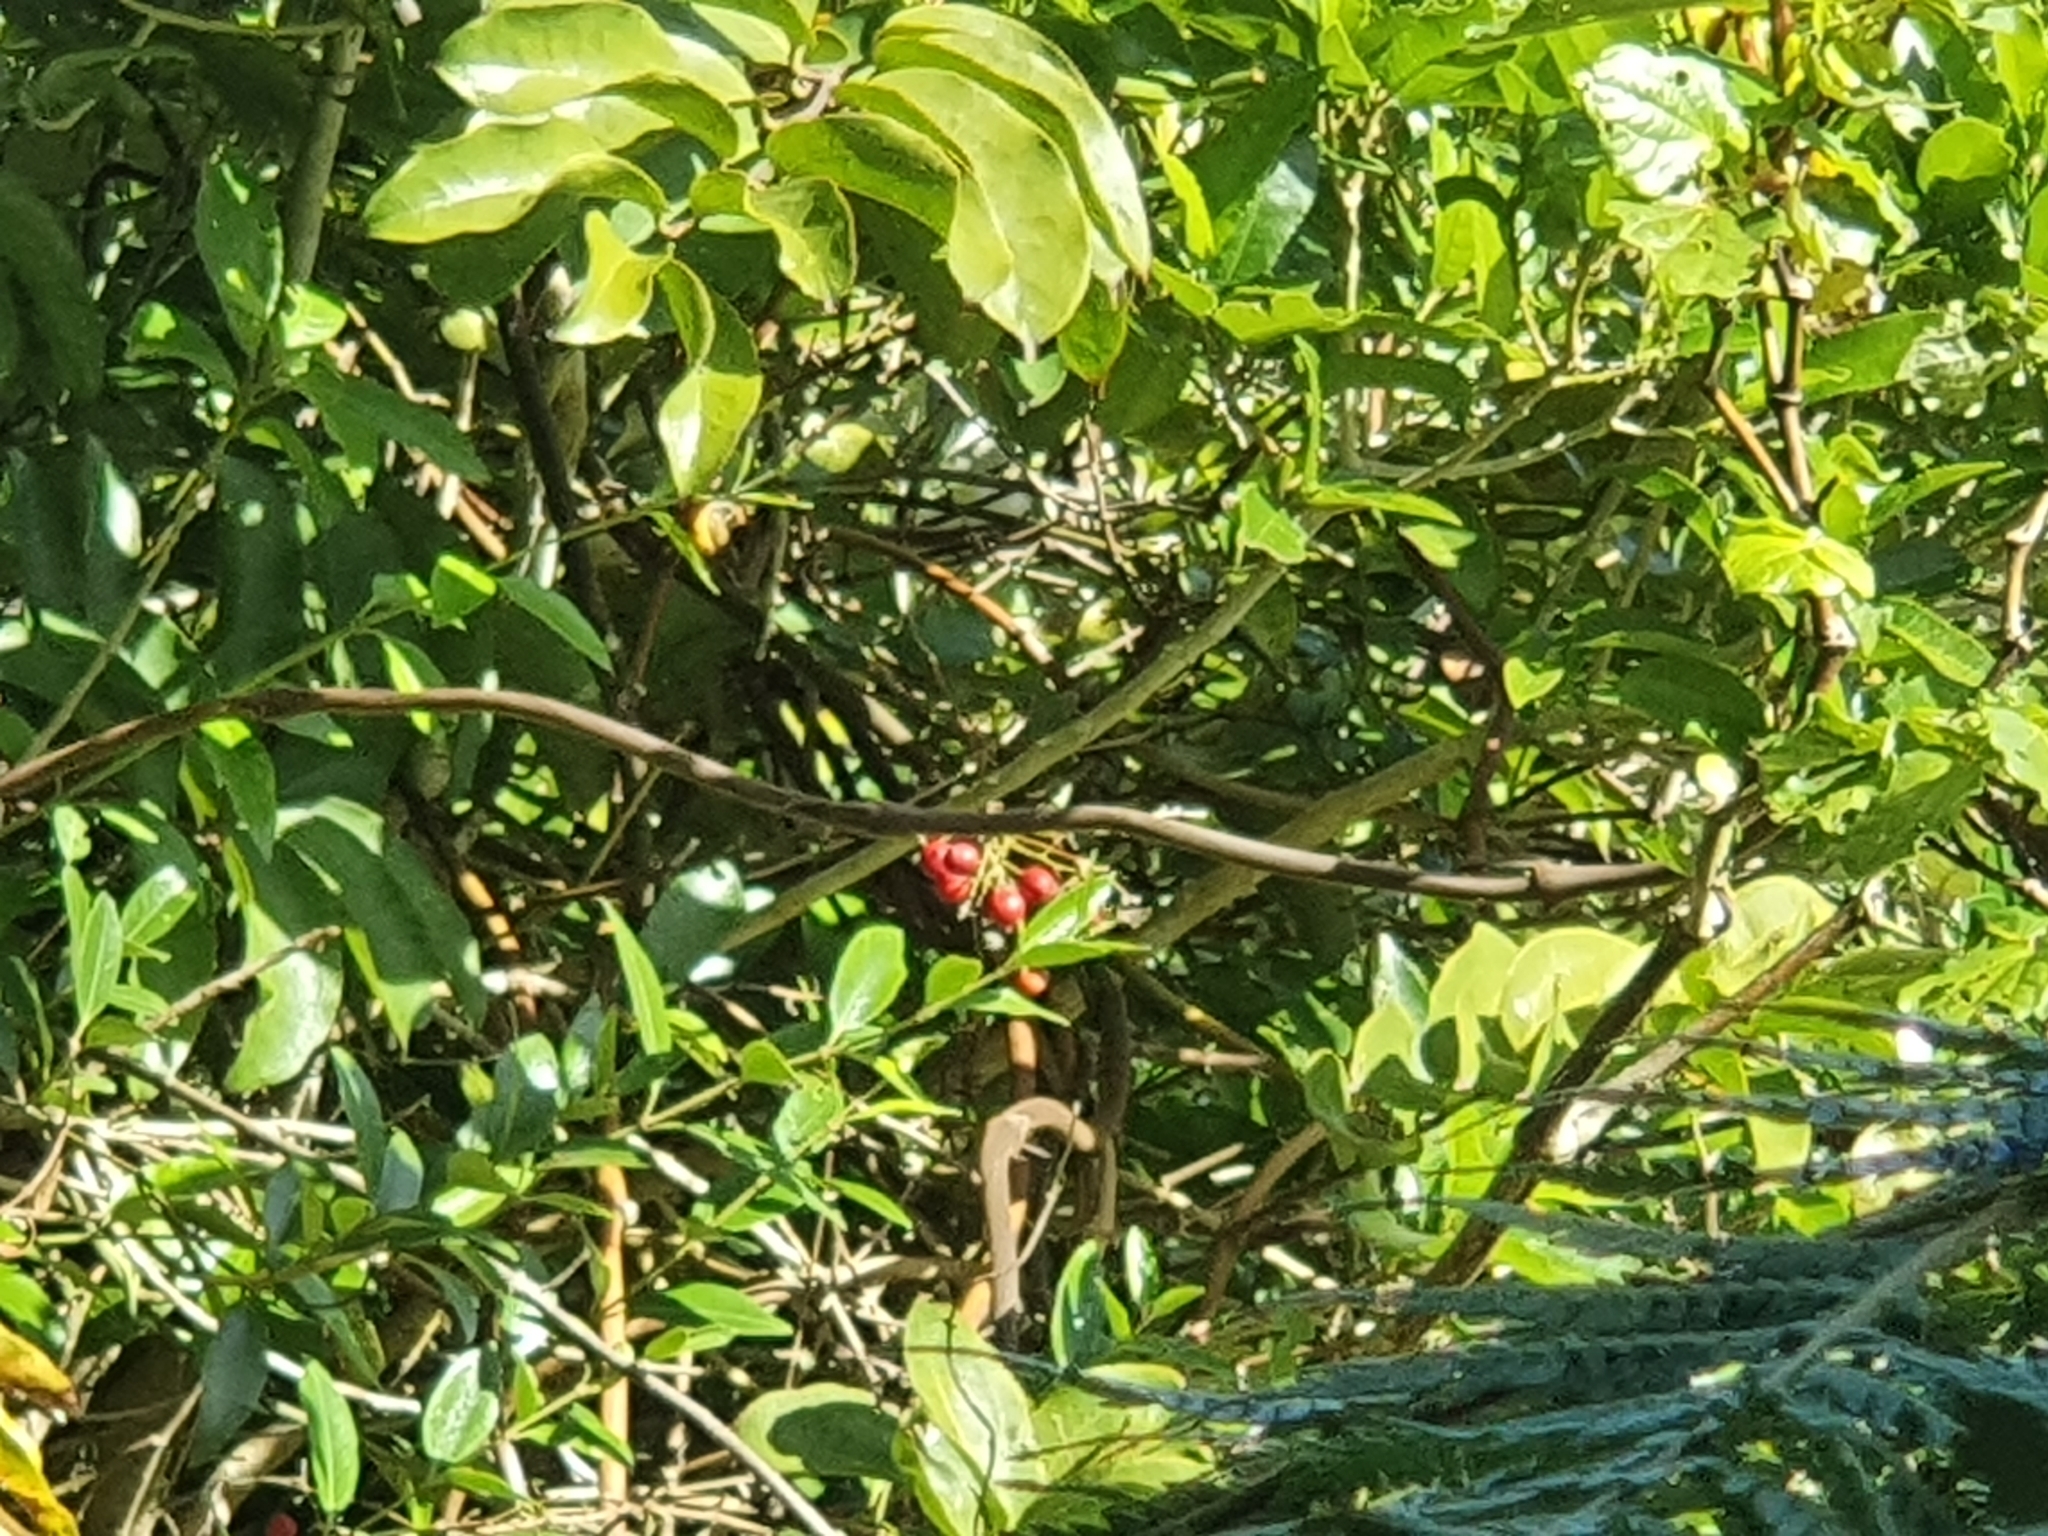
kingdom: Plantae
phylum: Tracheophyta
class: Liliopsida
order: Liliales
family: Ripogonaceae
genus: Ripogonum
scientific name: Ripogonum scandens
